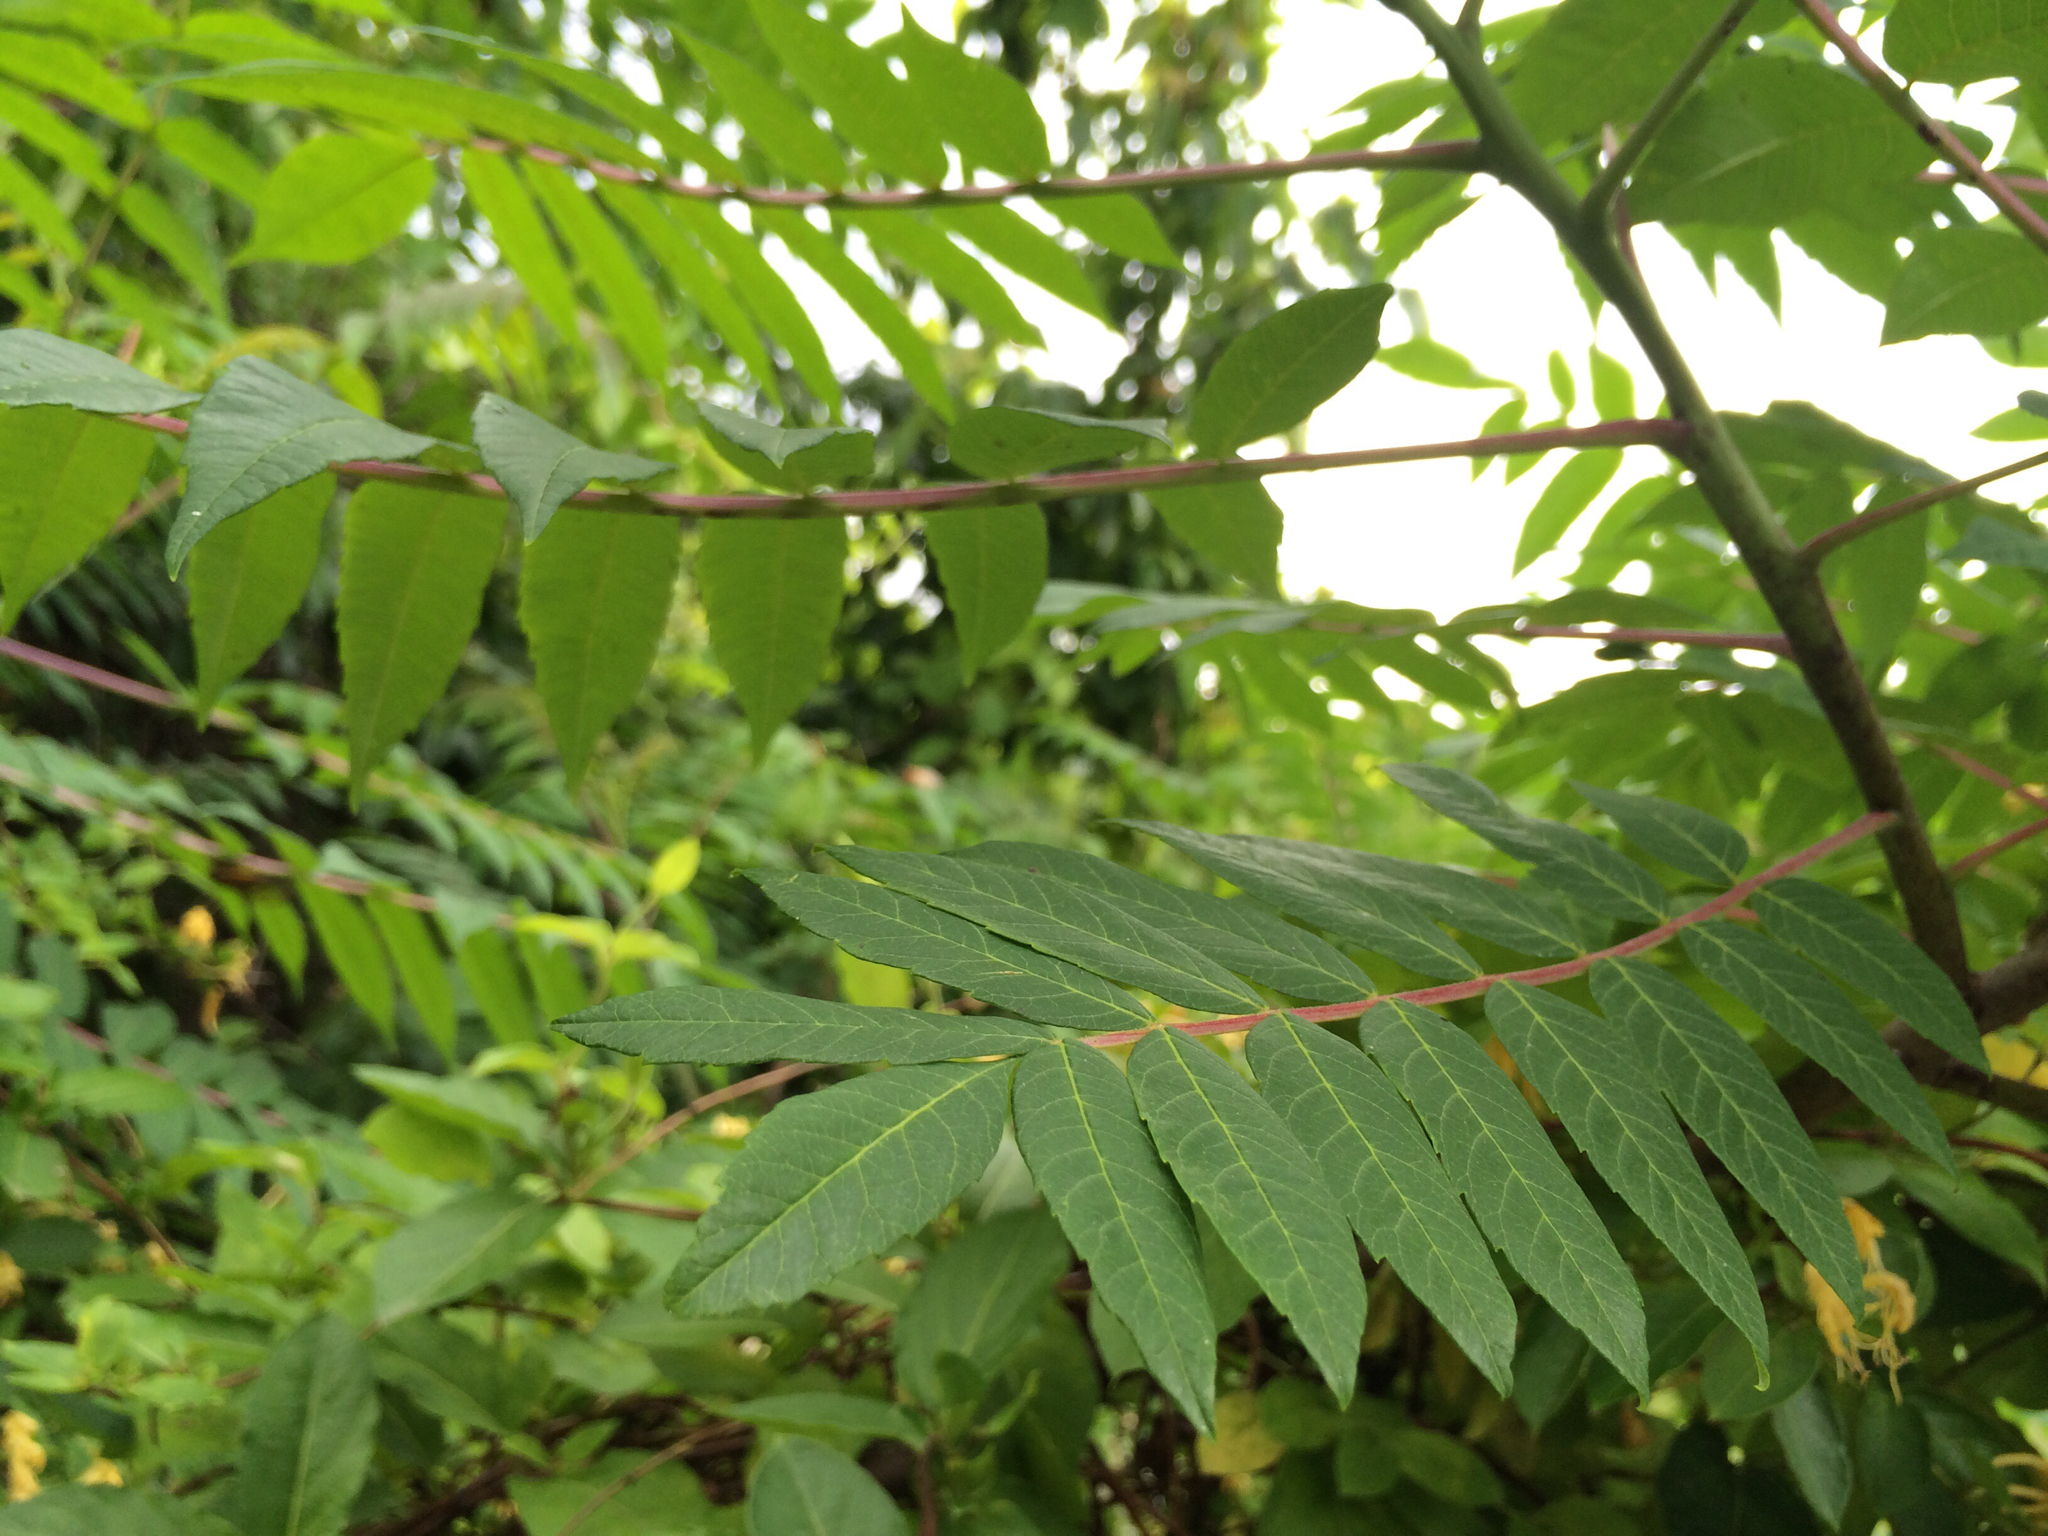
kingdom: Plantae
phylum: Tracheophyta
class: Magnoliopsida
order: Sapindales
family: Anacardiaceae
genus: Rhus
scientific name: Rhus typhina
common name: Staghorn sumac
